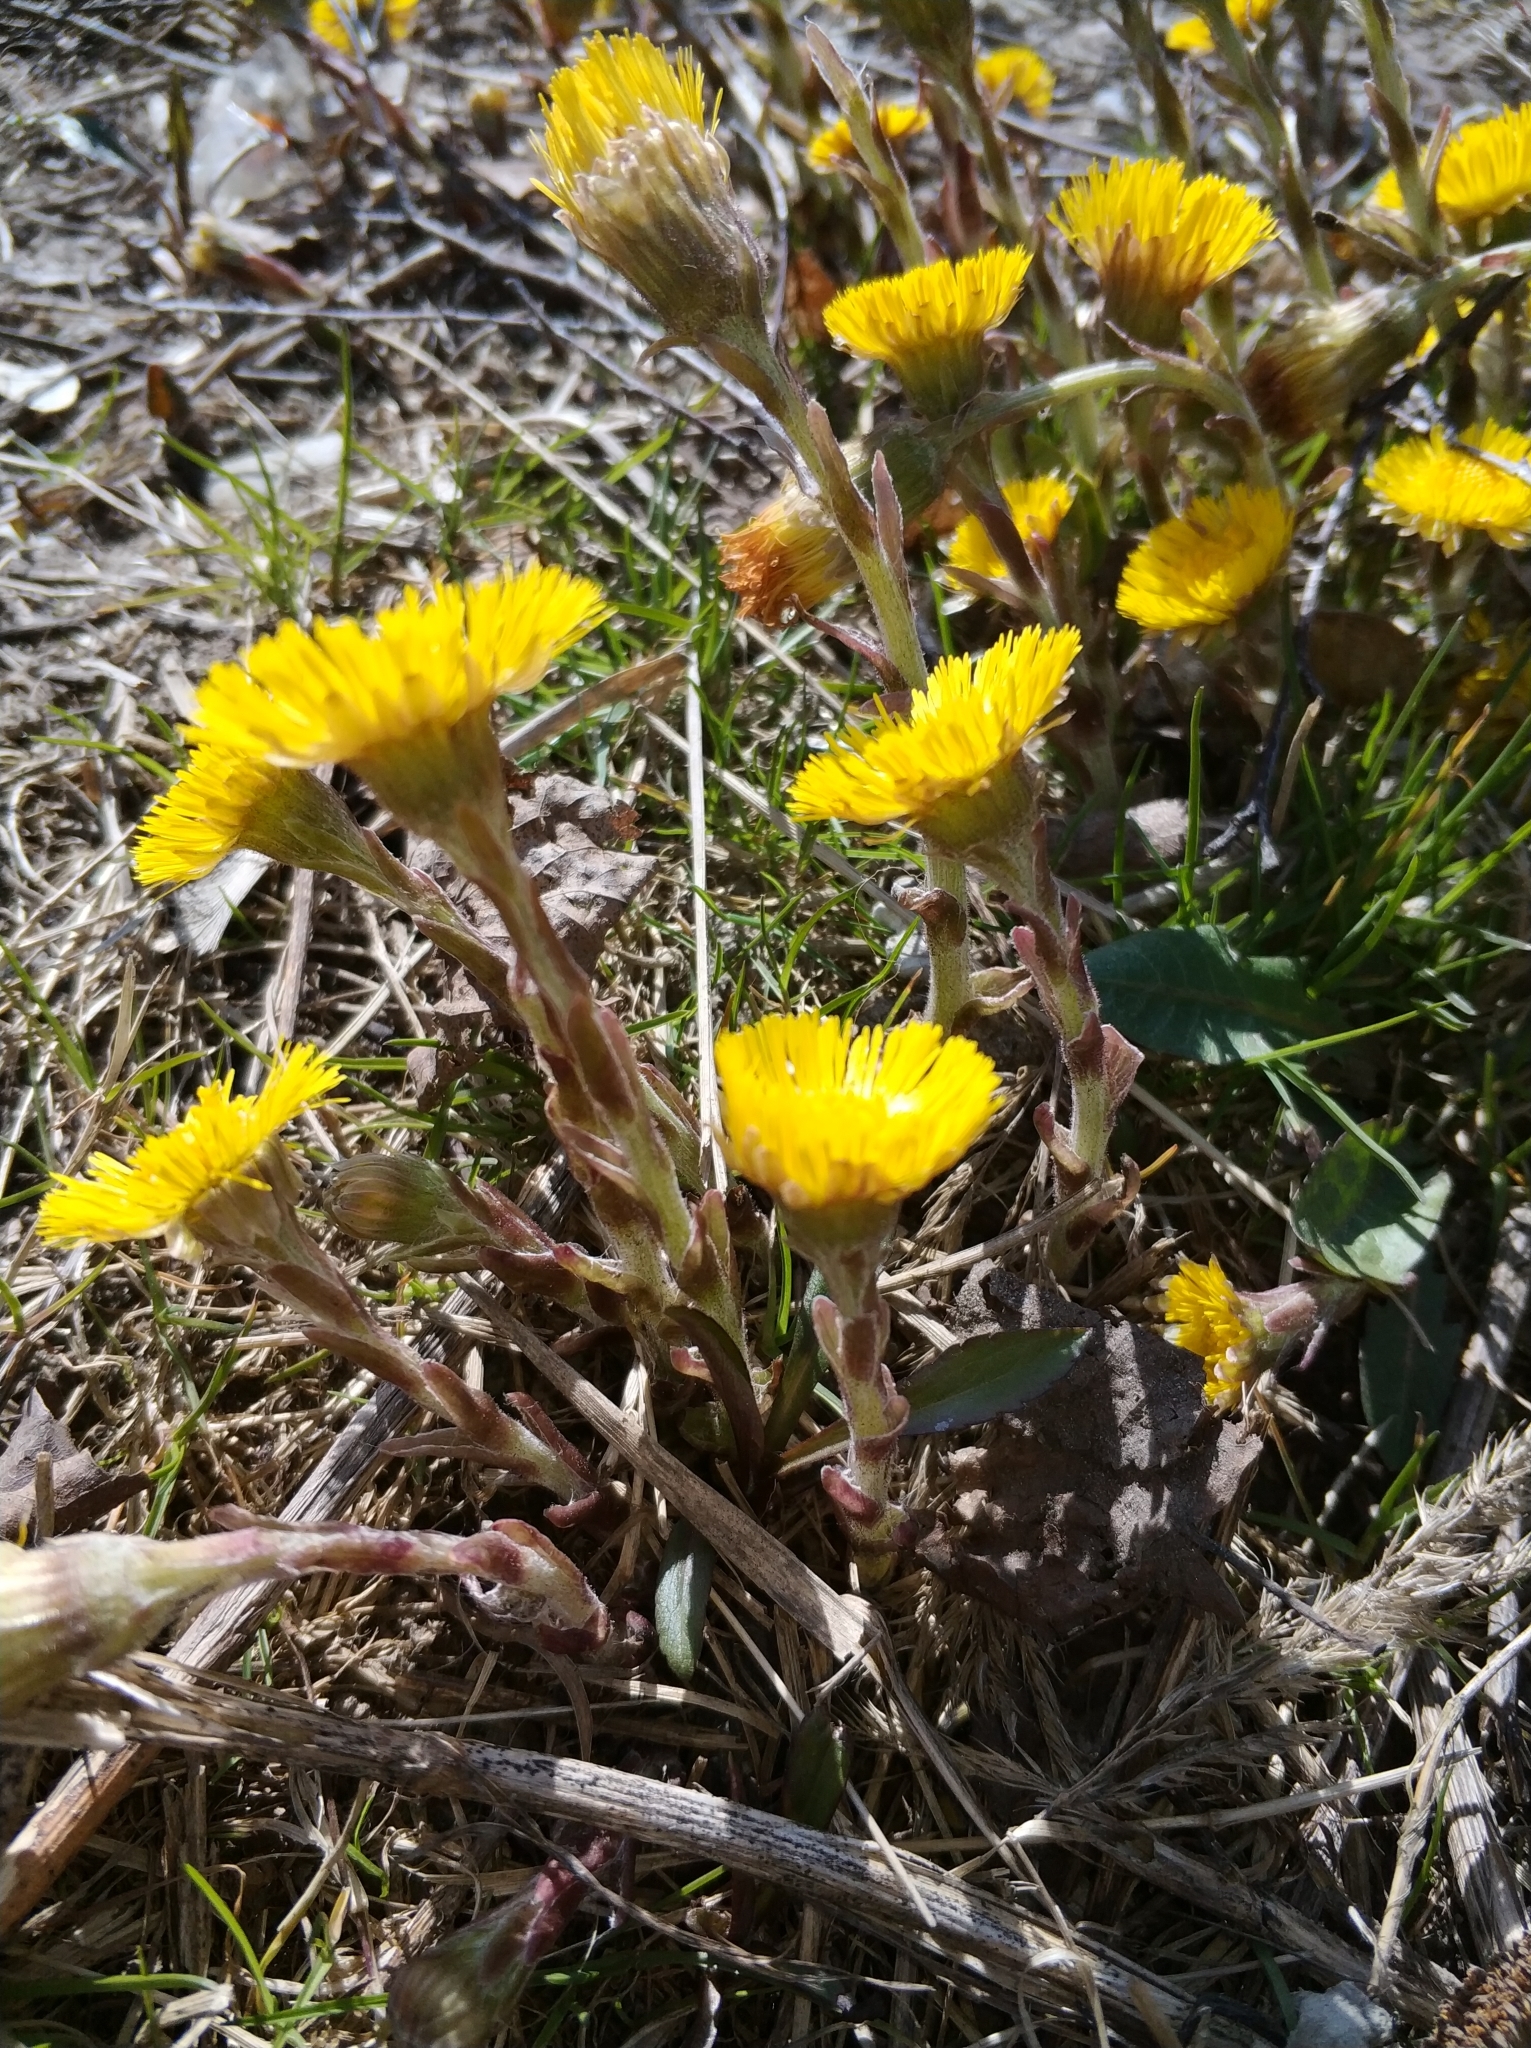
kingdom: Plantae
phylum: Tracheophyta
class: Magnoliopsida
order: Asterales
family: Asteraceae
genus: Tussilago
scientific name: Tussilago farfara
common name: Coltsfoot
